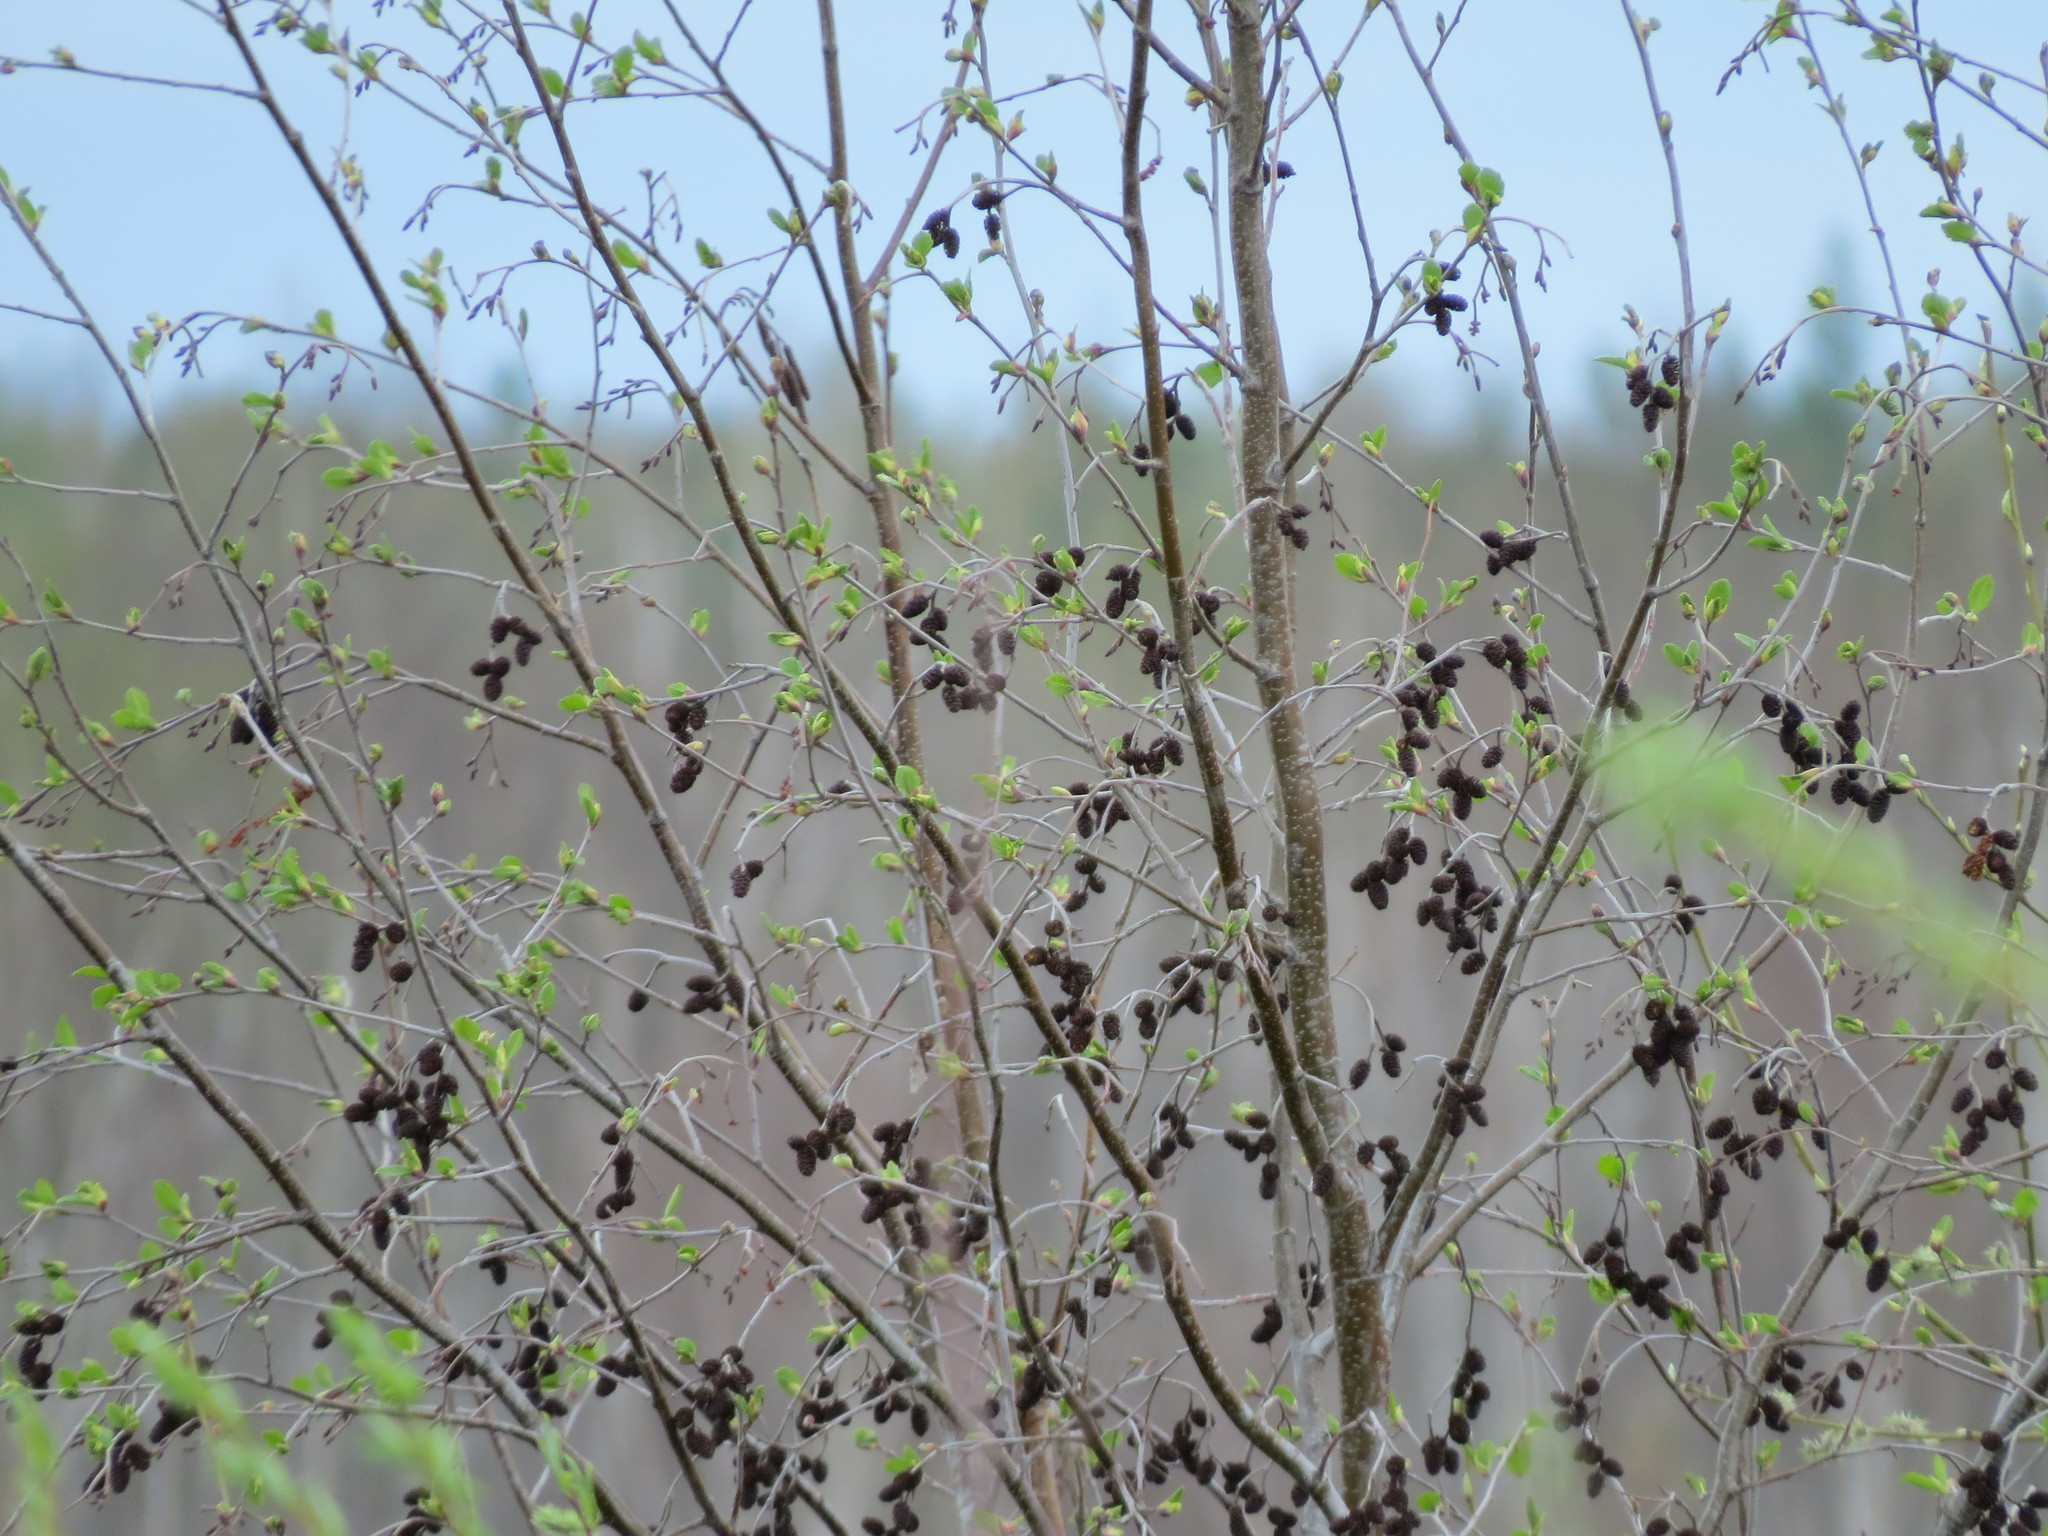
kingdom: Plantae
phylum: Tracheophyta
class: Magnoliopsida
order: Fagales
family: Betulaceae
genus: Alnus
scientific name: Alnus incana
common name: Grey alder
